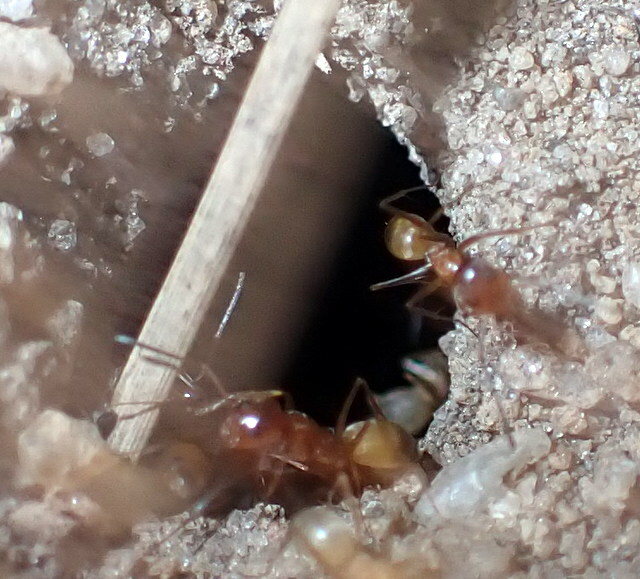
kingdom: Animalia
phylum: Arthropoda
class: Insecta
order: Hymenoptera
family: Formicidae
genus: Dorymyrmex
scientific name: Dorymyrmex bureni
